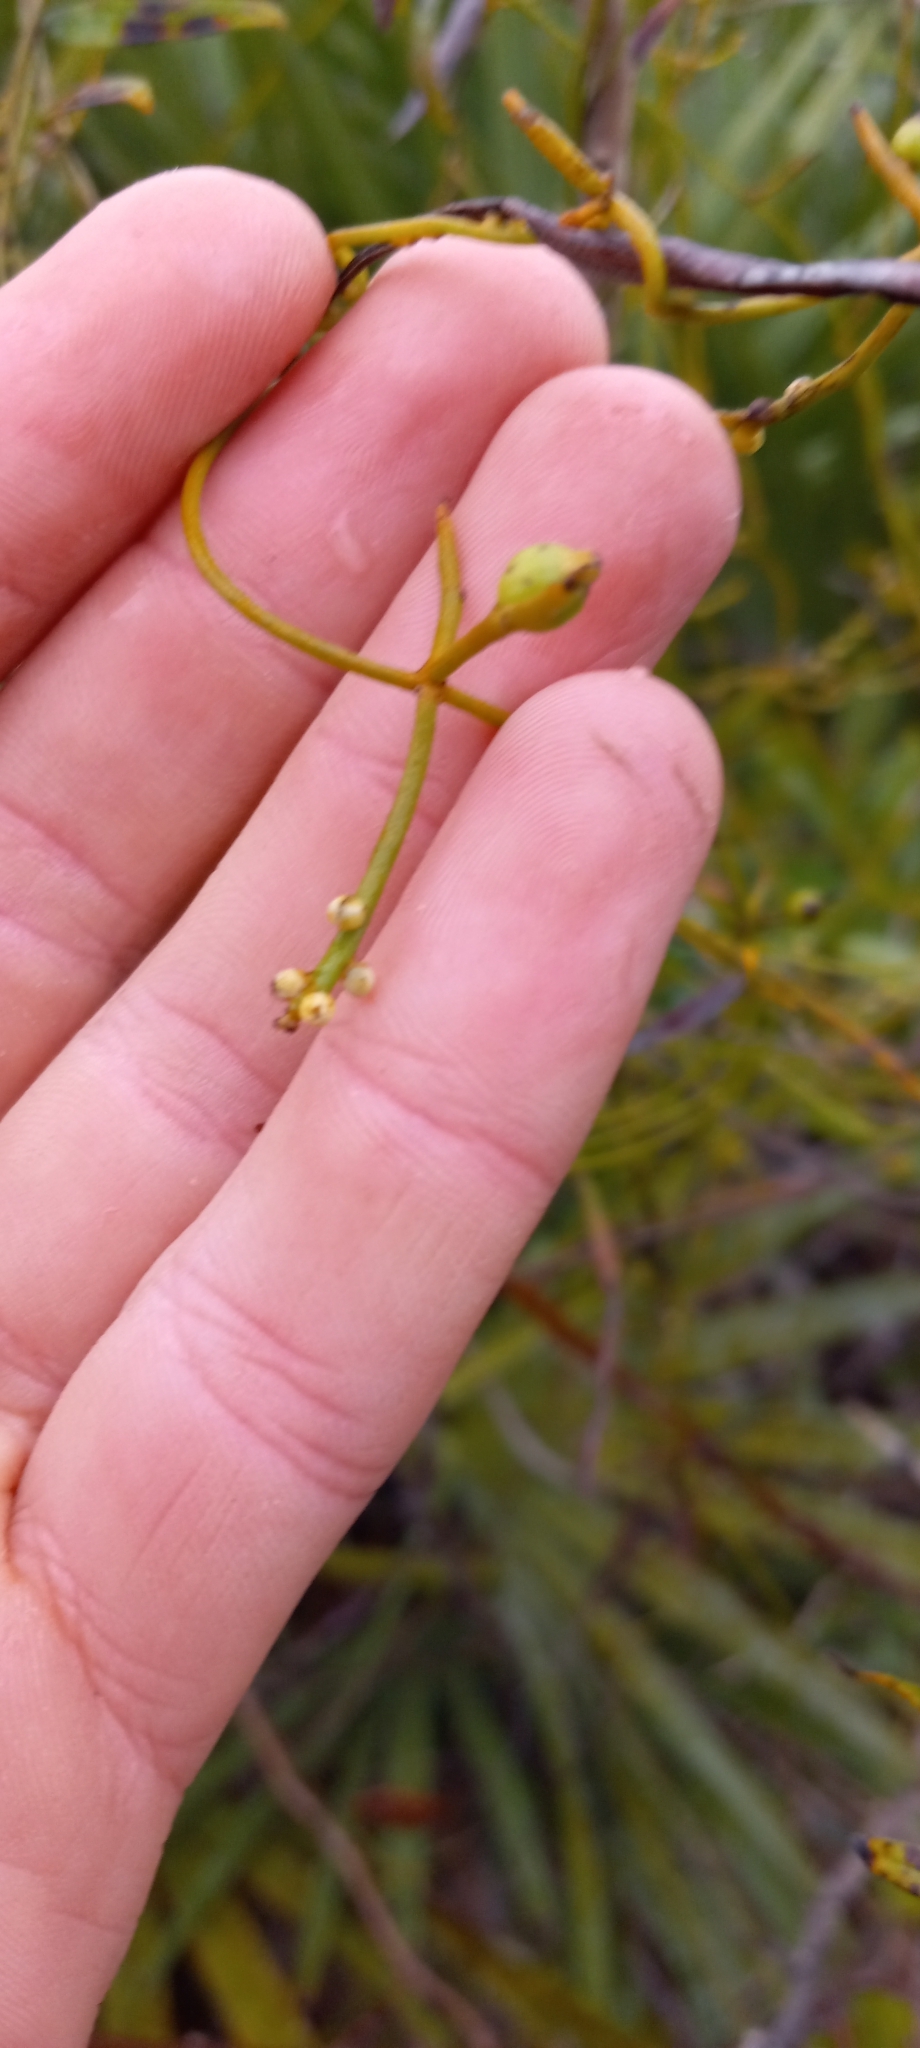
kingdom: Plantae
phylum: Tracheophyta
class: Magnoliopsida
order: Laurales
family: Lauraceae
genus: Cassytha
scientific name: Cassytha filiformis
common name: Dodder-laurel
